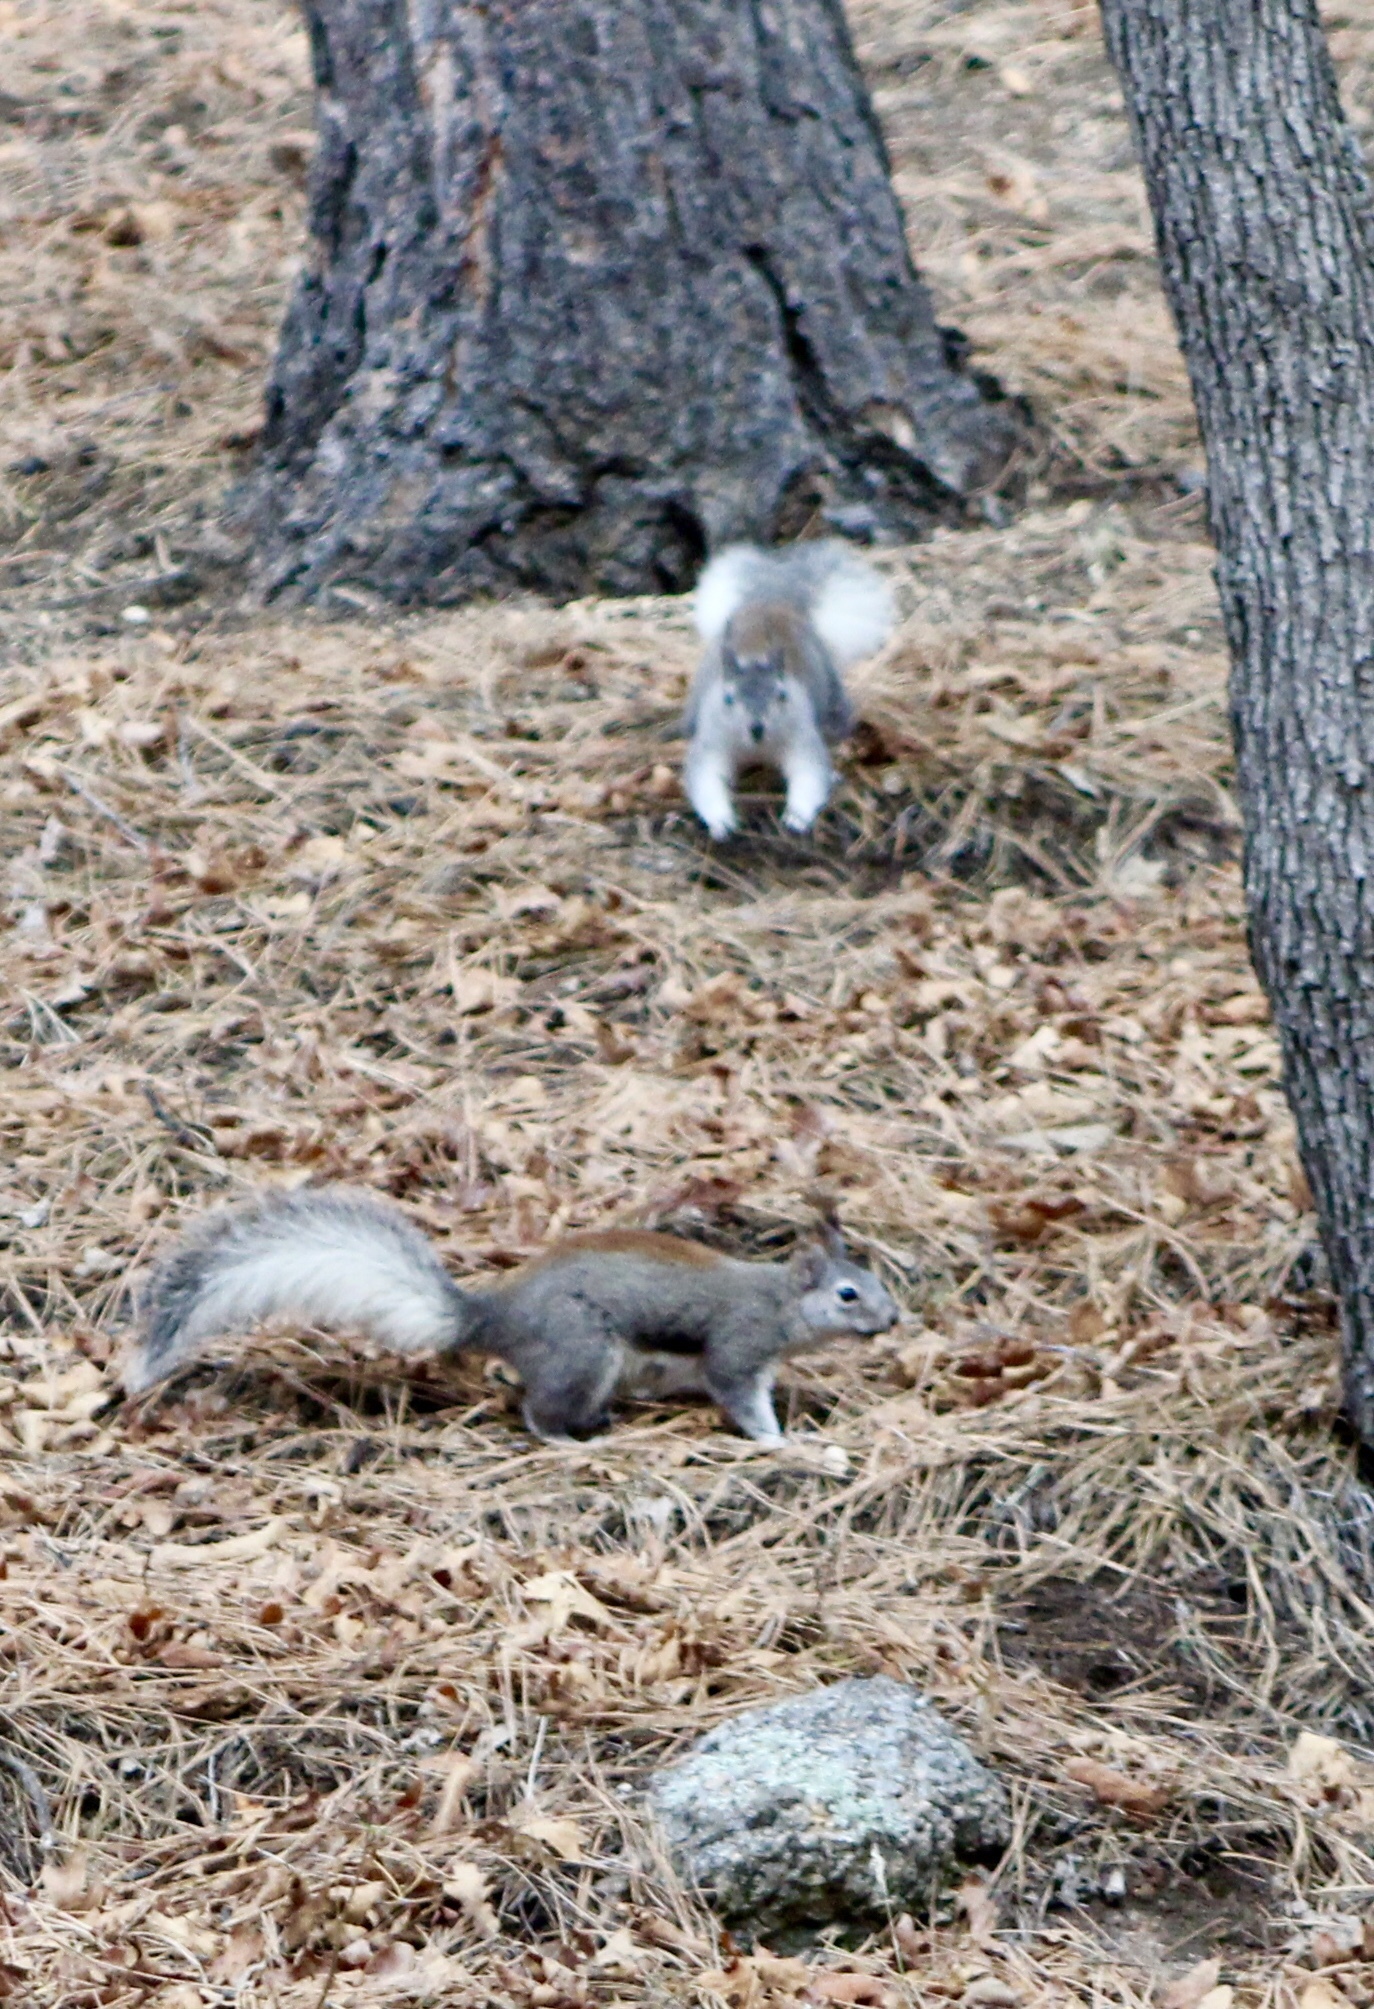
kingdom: Animalia
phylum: Chordata
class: Mammalia
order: Rodentia
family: Sciuridae
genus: Sciurus
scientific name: Sciurus aberti
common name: Abert's squirrel
